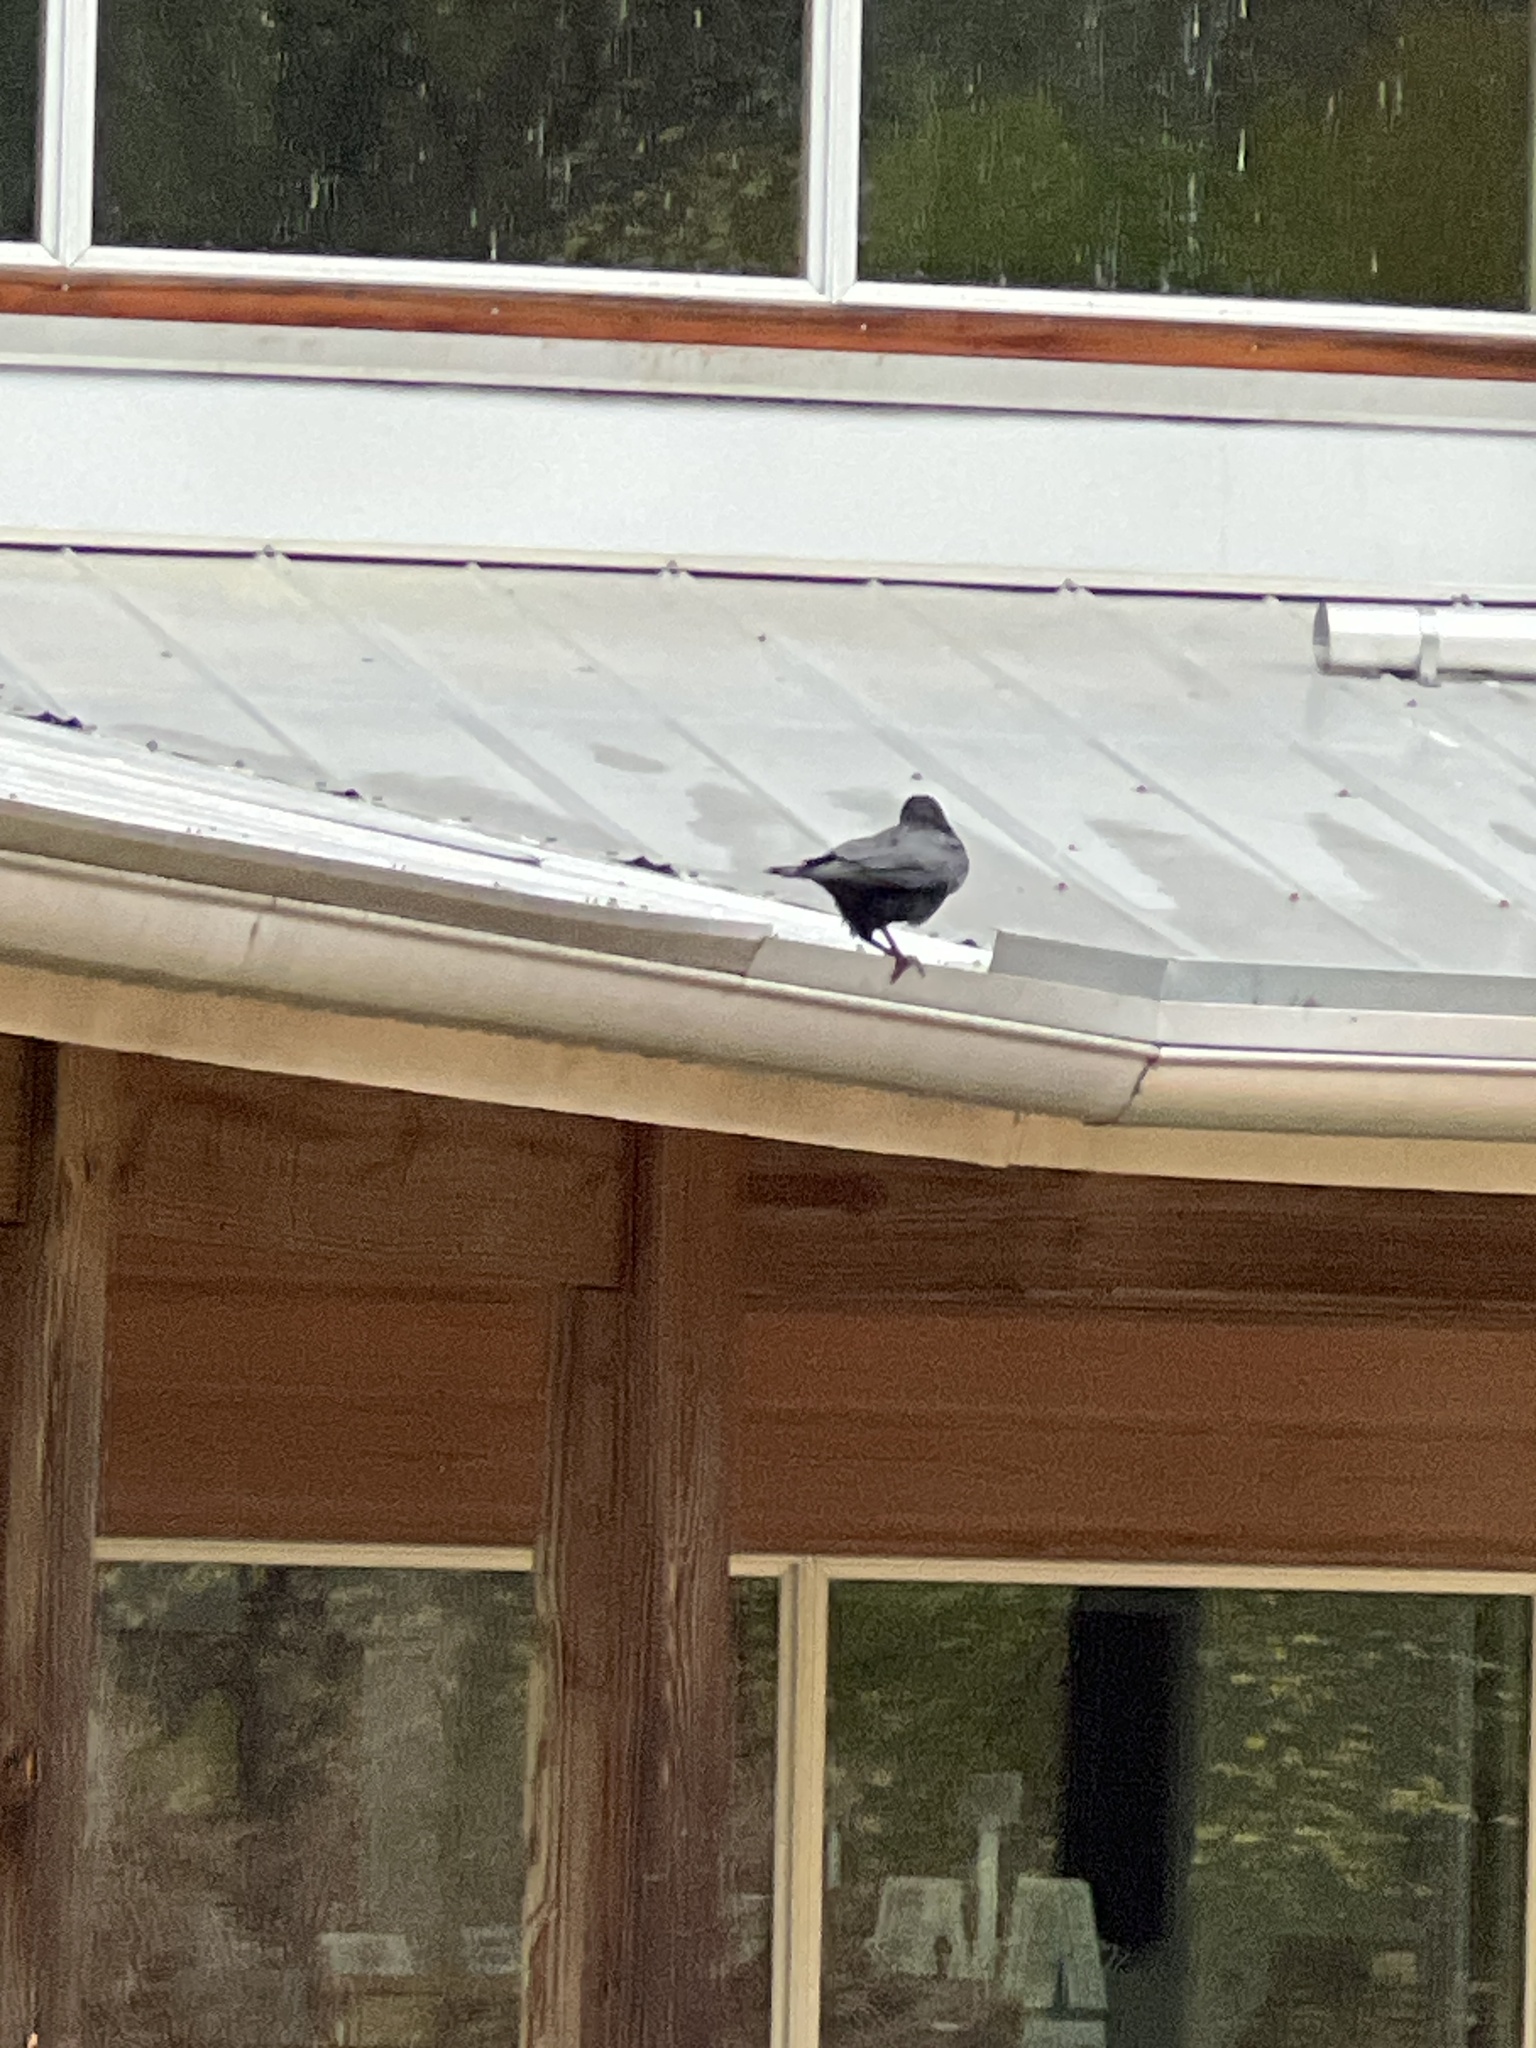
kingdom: Animalia
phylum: Chordata
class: Aves
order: Passeriformes
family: Corvidae
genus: Corvus
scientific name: Corvus
